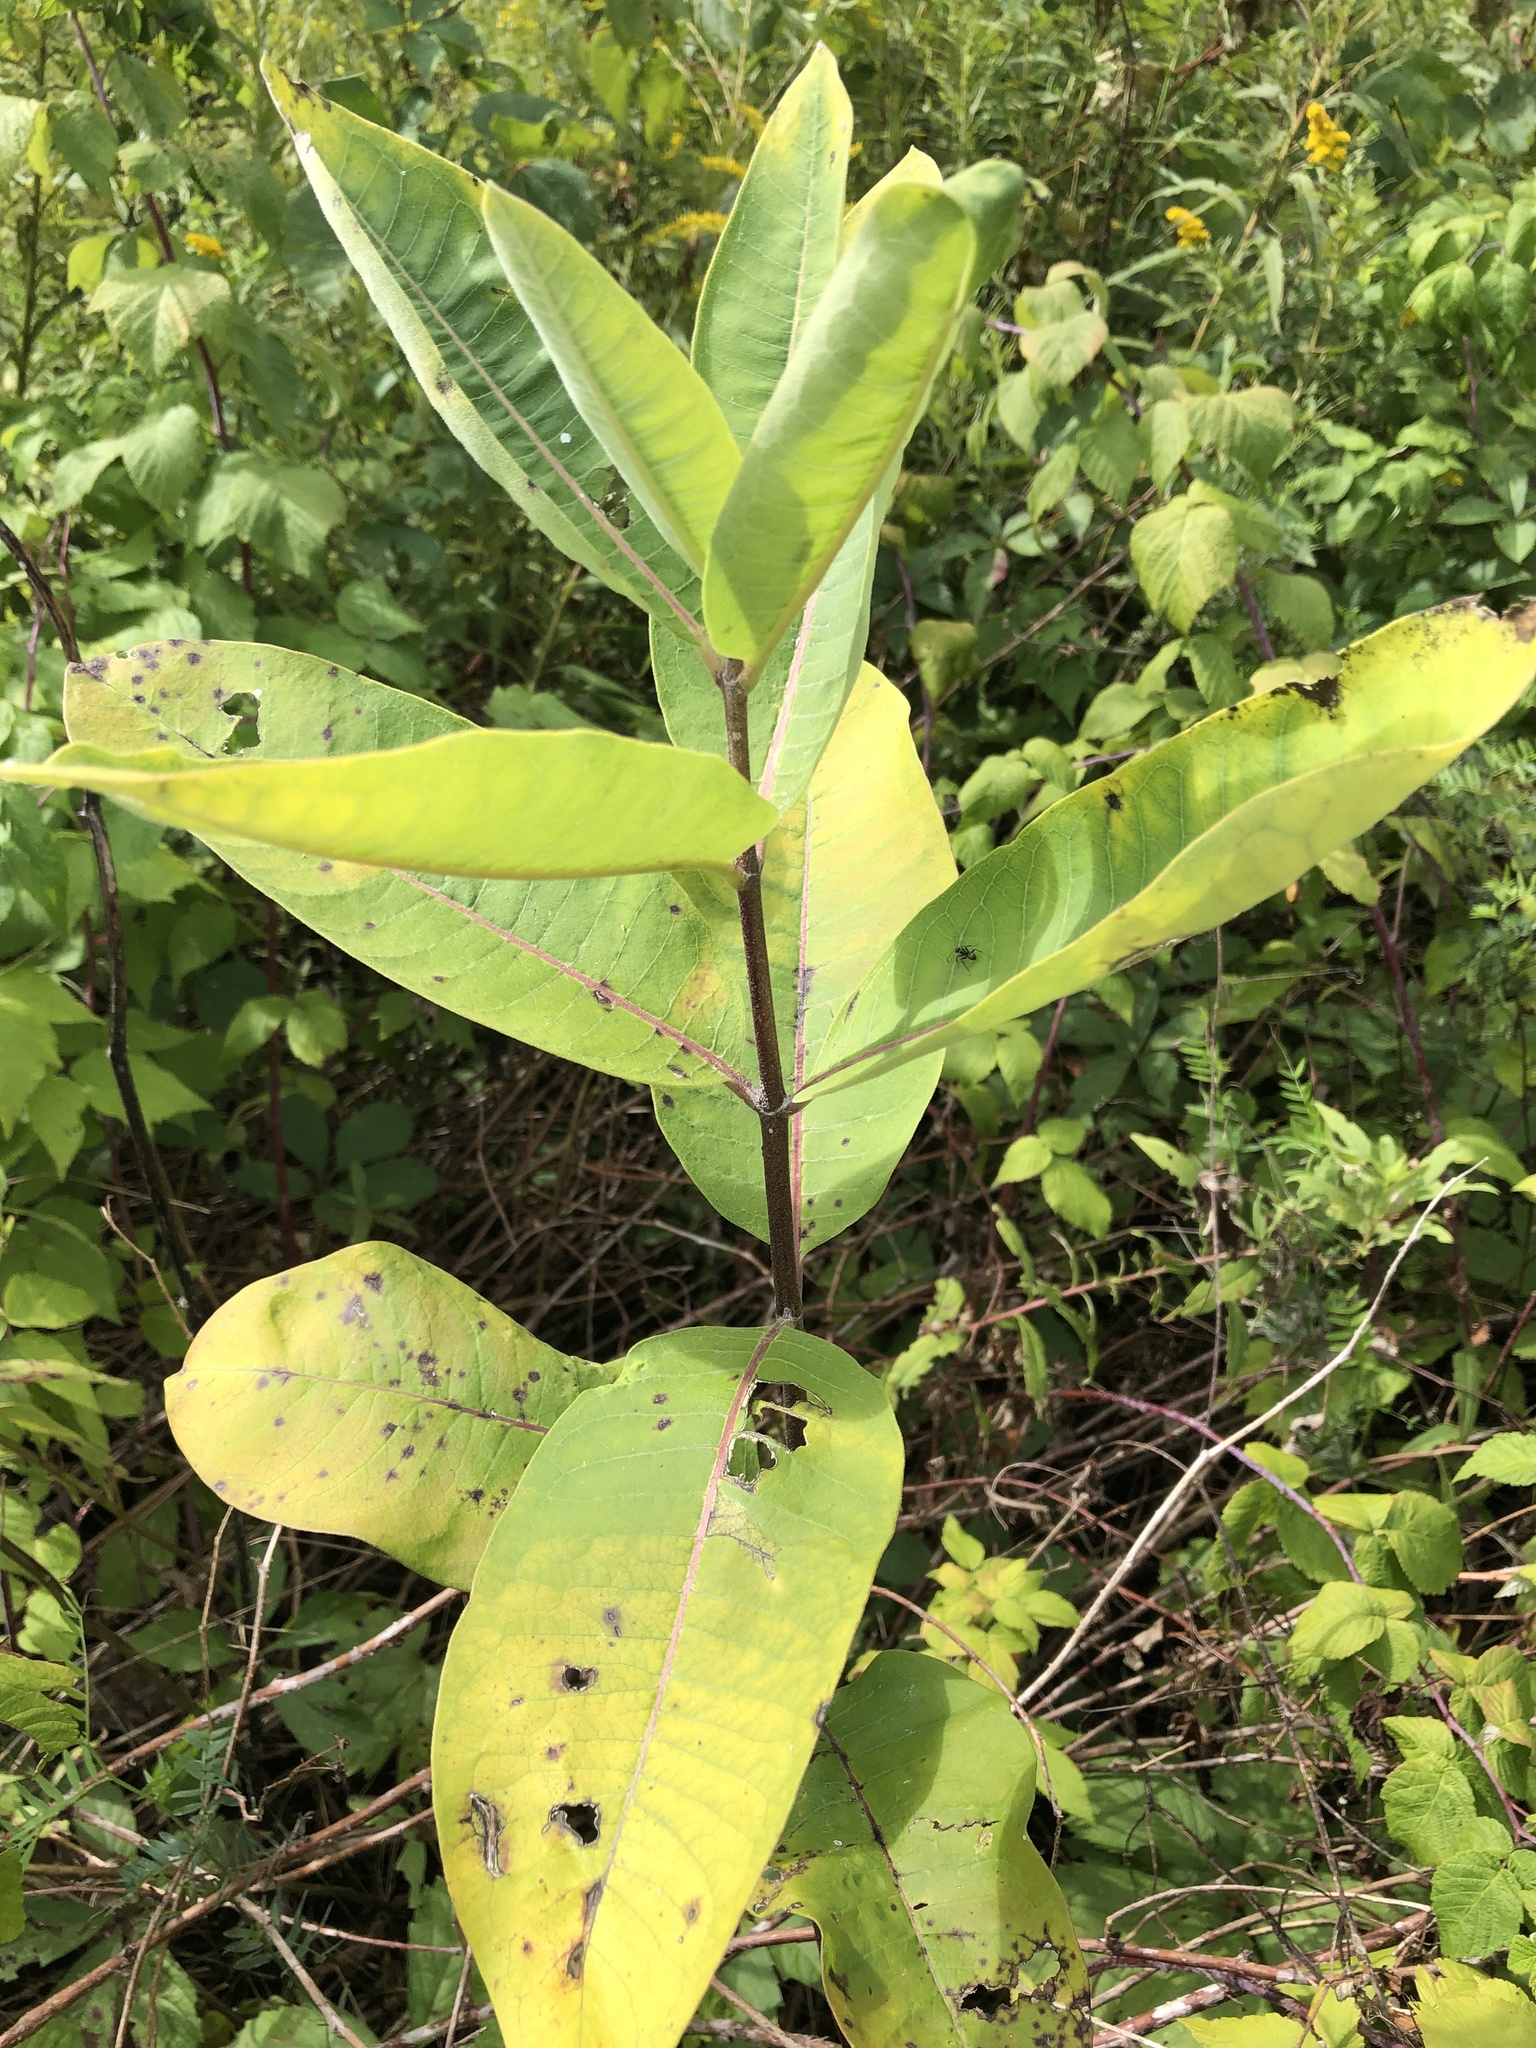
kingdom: Plantae
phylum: Tracheophyta
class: Magnoliopsida
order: Gentianales
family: Apocynaceae
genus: Asclepias
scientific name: Asclepias syriaca
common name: Common milkweed
